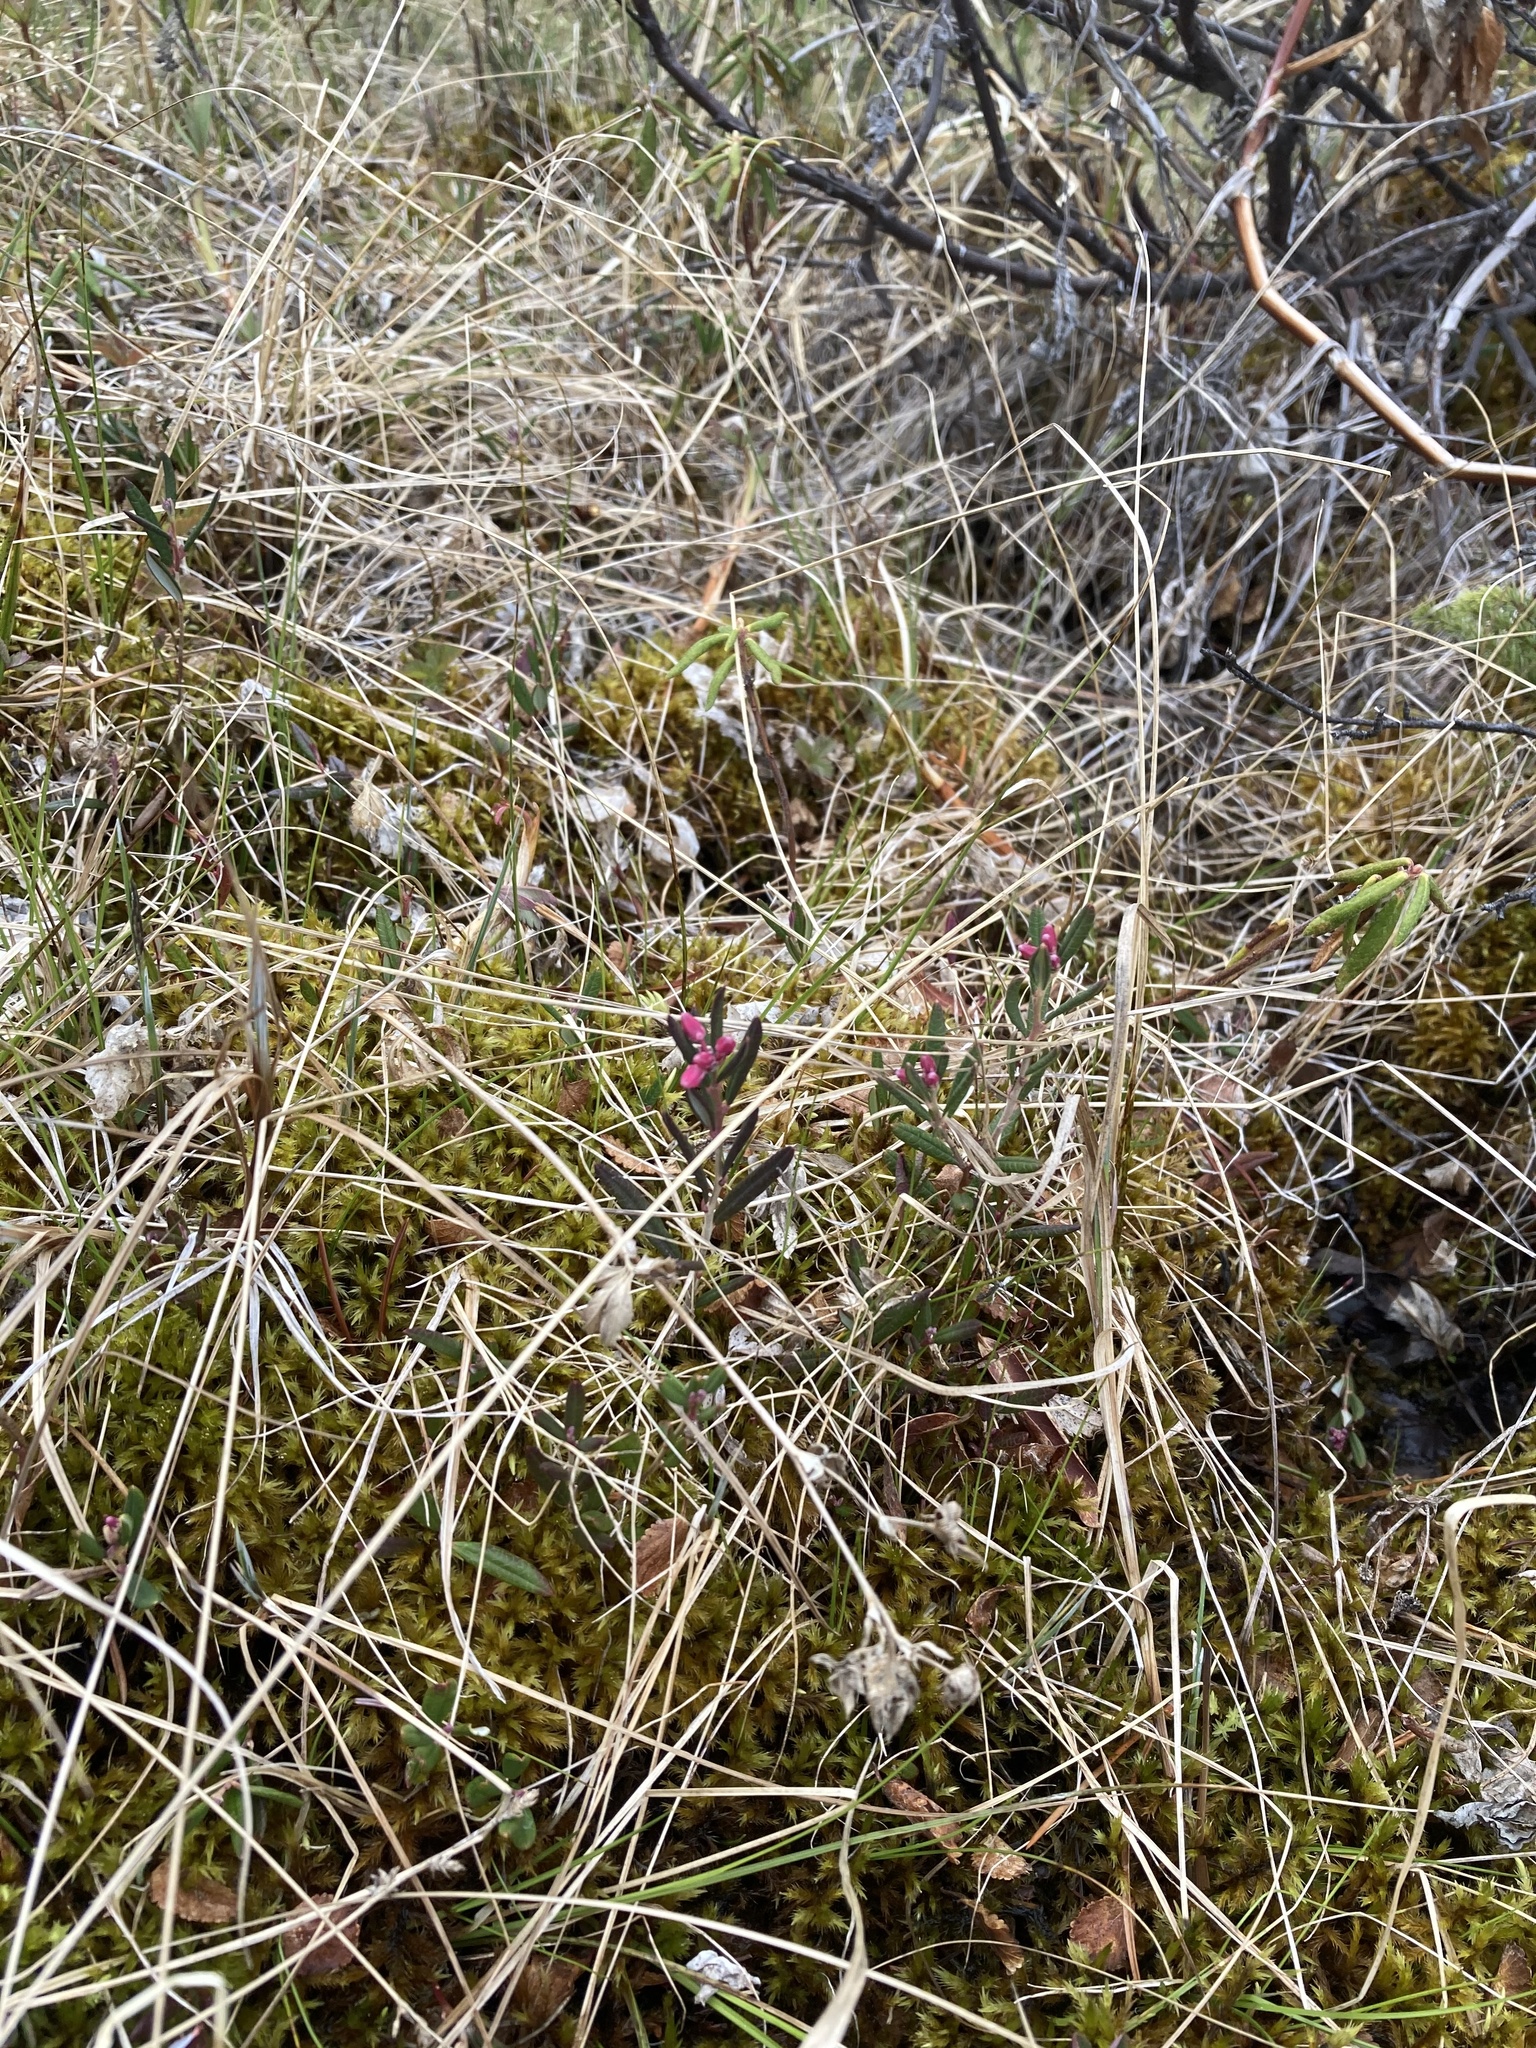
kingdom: Plantae
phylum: Tracheophyta
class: Magnoliopsida
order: Ericales
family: Ericaceae
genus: Andromeda
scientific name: Andromeda polifolia
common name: Bog-rosemary
